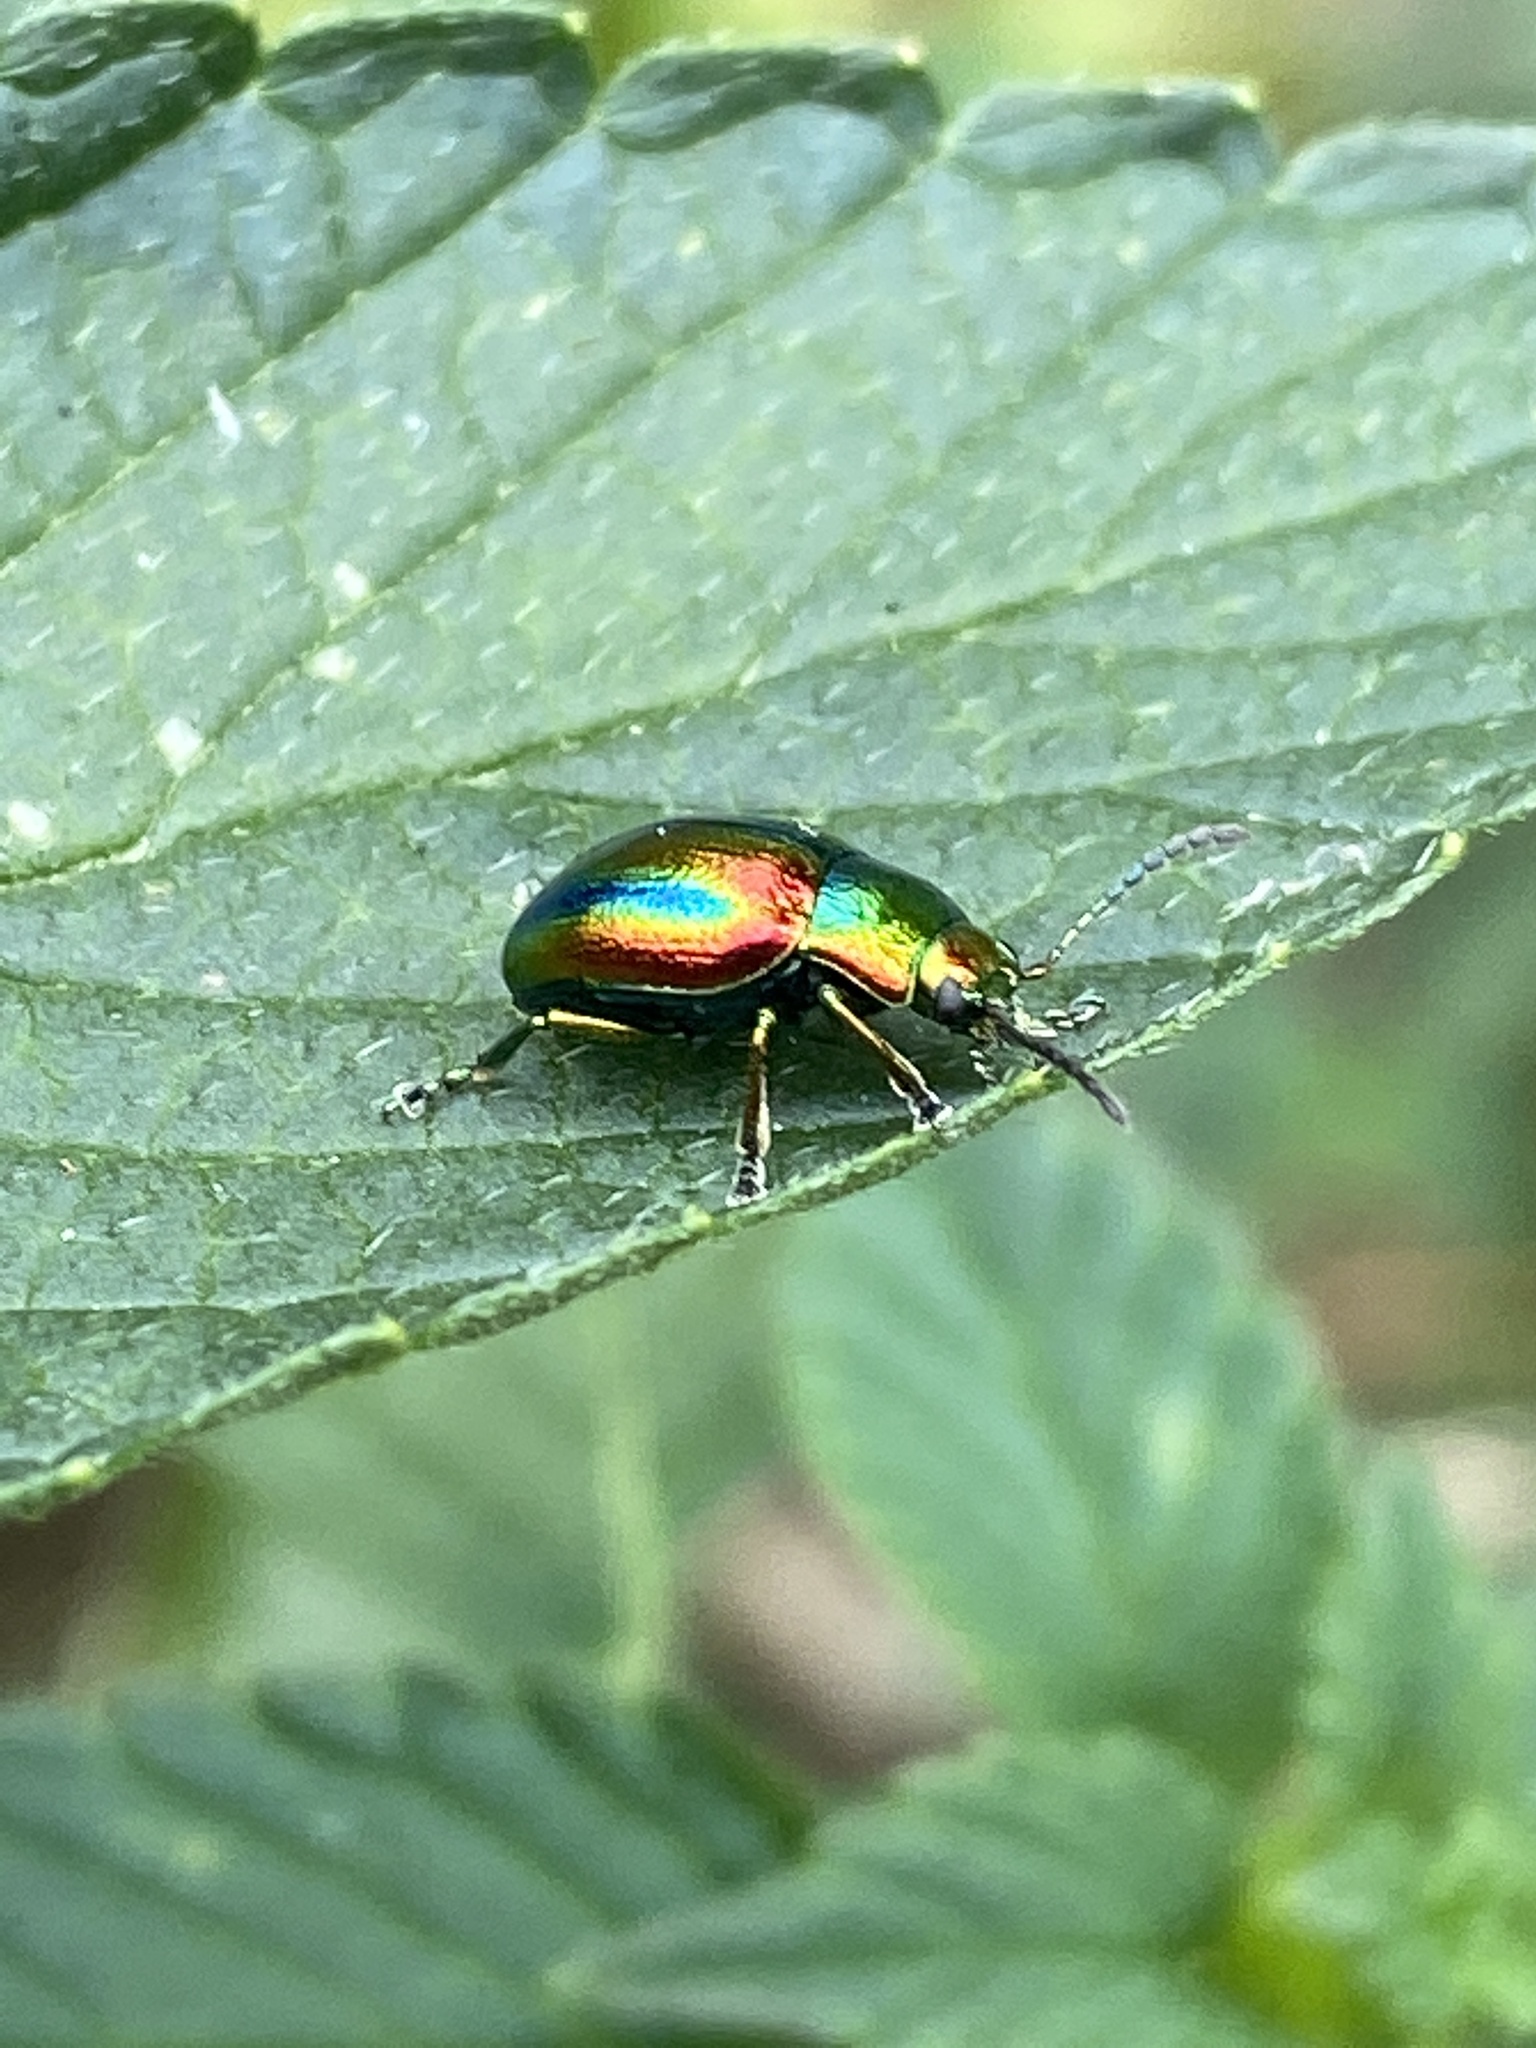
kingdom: Animalia
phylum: Arthropoda
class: Insecta
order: Coleoptera
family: Chrysomelidae
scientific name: Chrysomelidae
